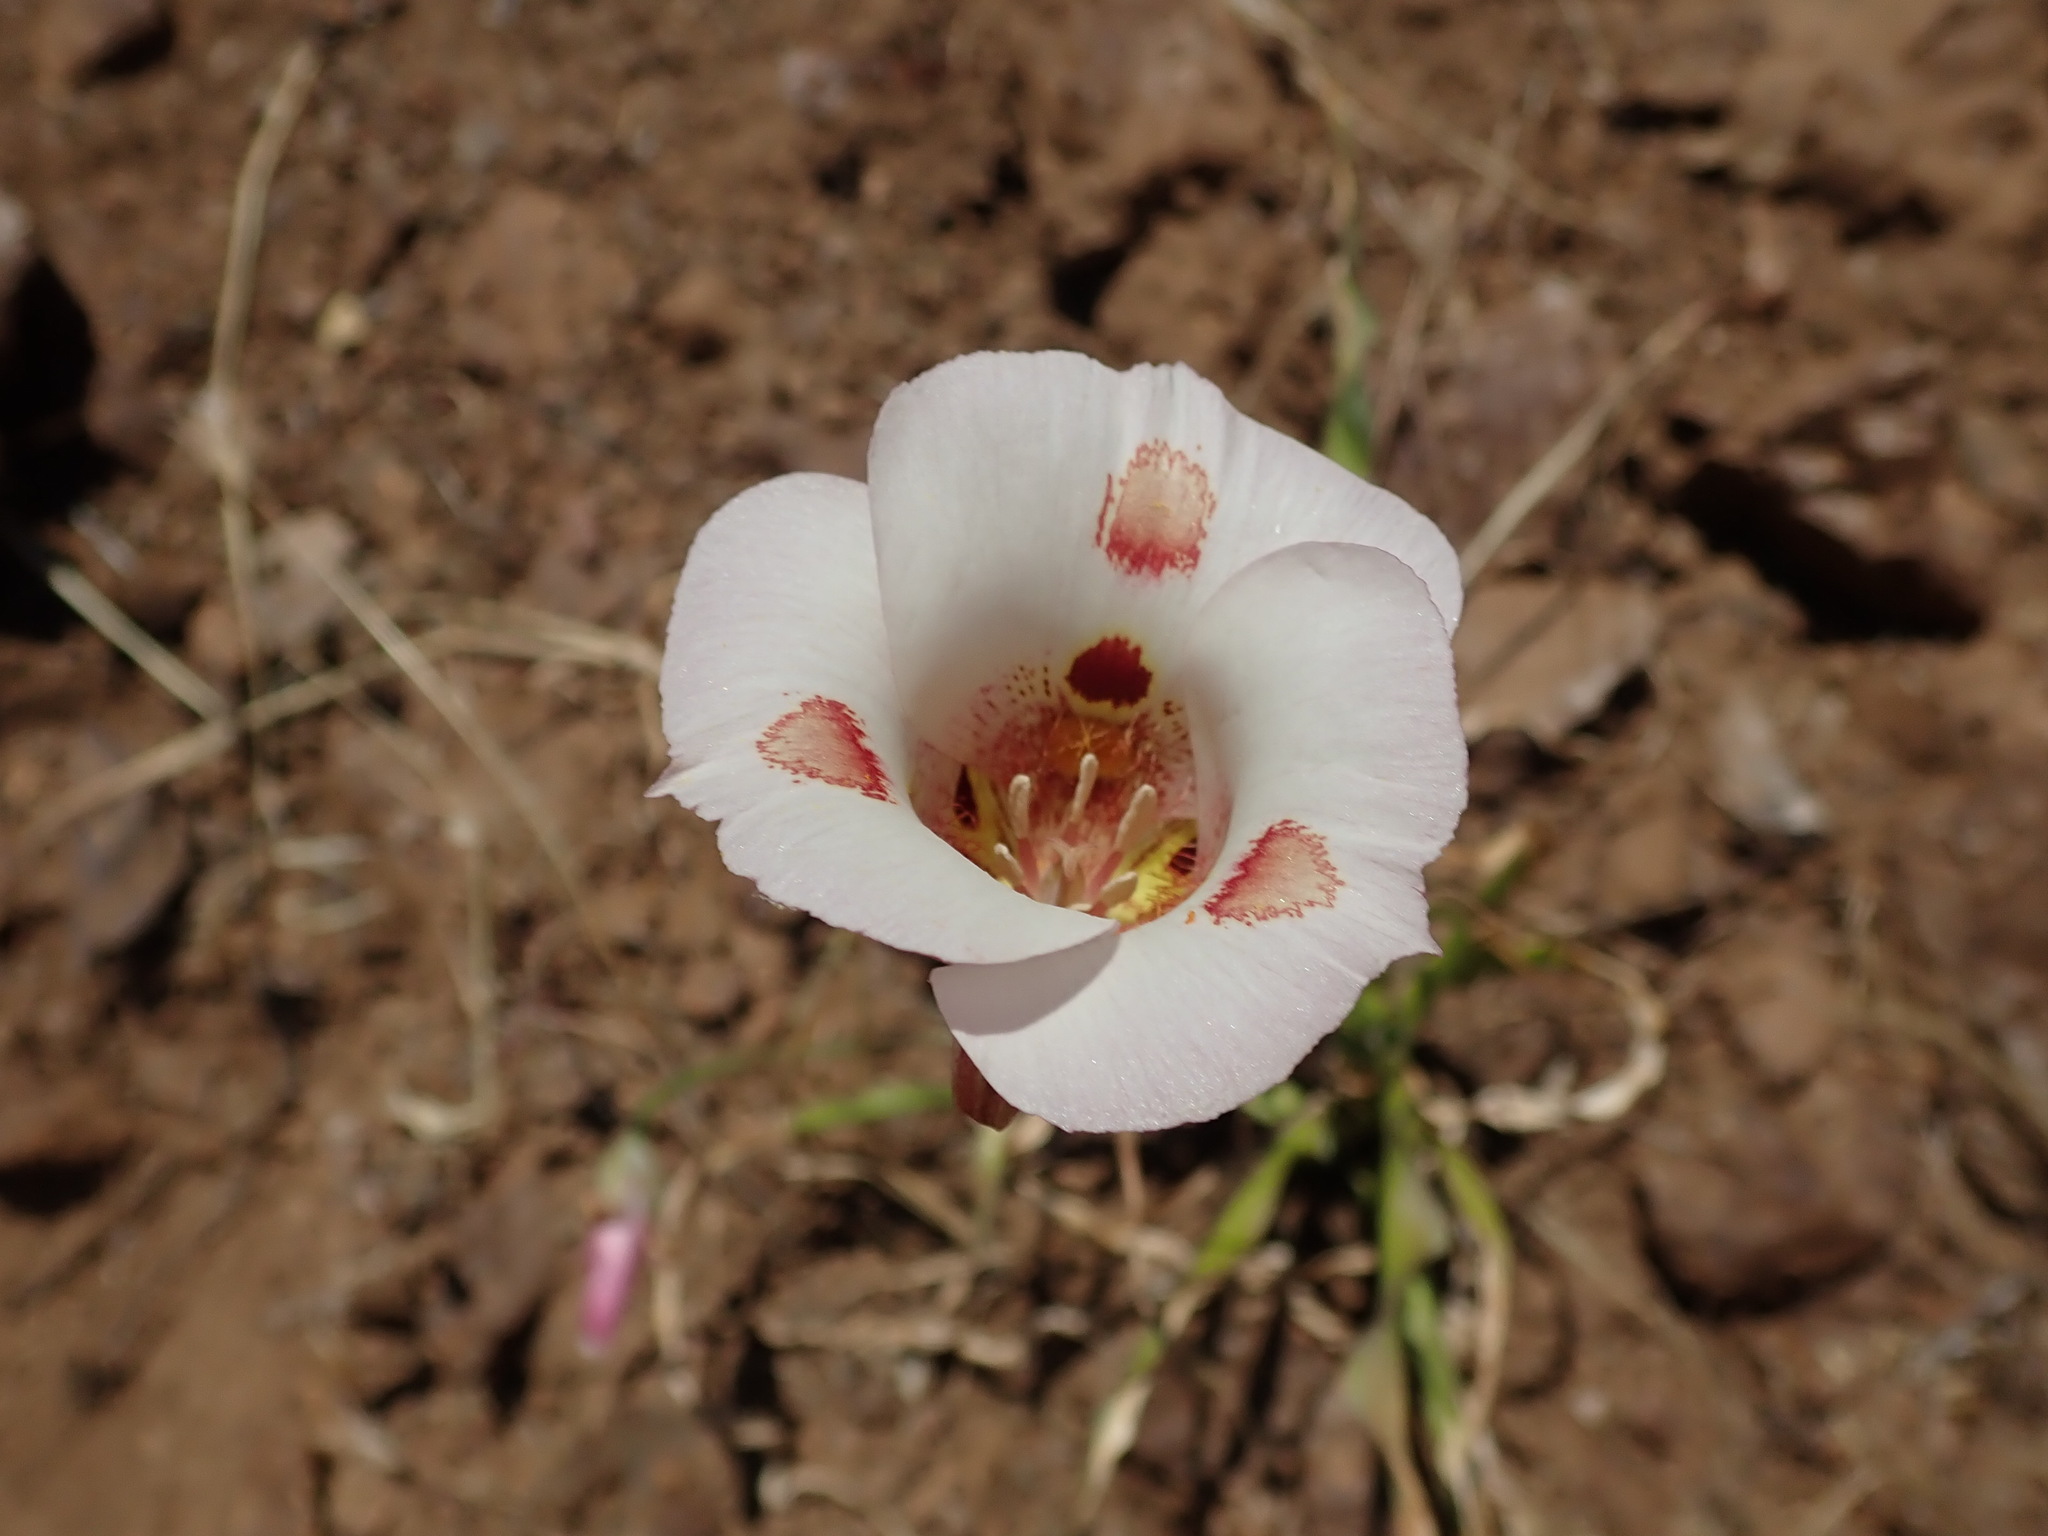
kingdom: Plantae
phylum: Tracheophyta
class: Liliopsida
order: Liliales
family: Liliaceae
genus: Calochortus
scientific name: Calochortus venustus
